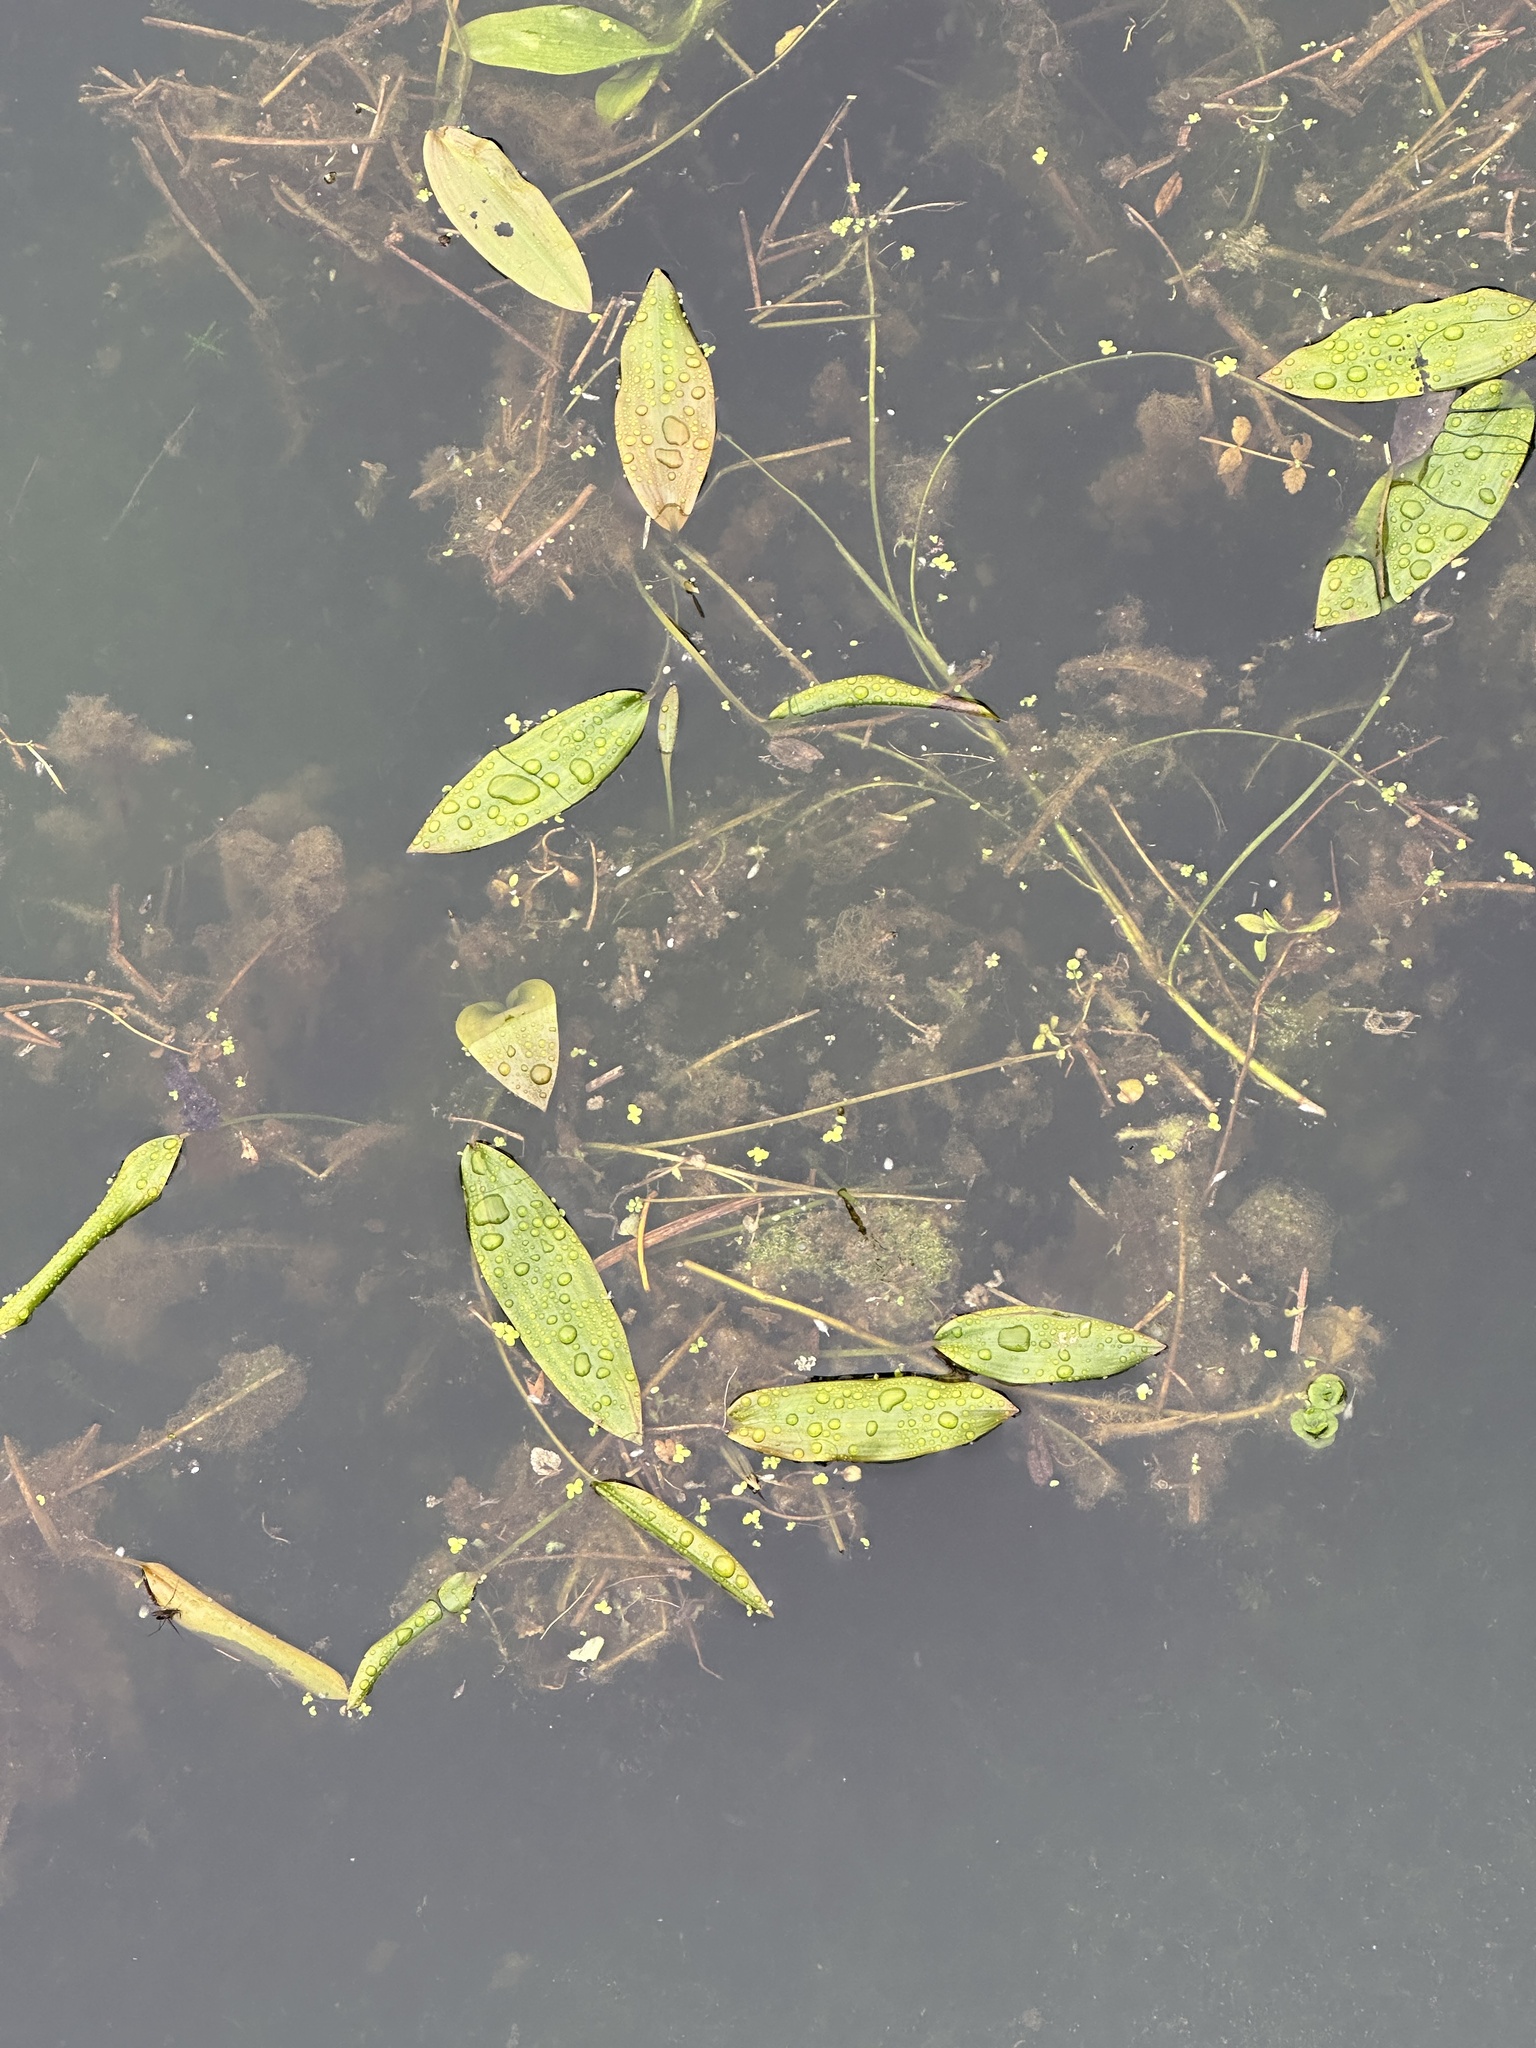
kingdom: Plantae
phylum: Tracheophyta
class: Liliopsida
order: Alismatales
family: Potamogetonaceae
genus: Potamogeton
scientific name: Potamogeton polygonifolius
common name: Bog pondweed
